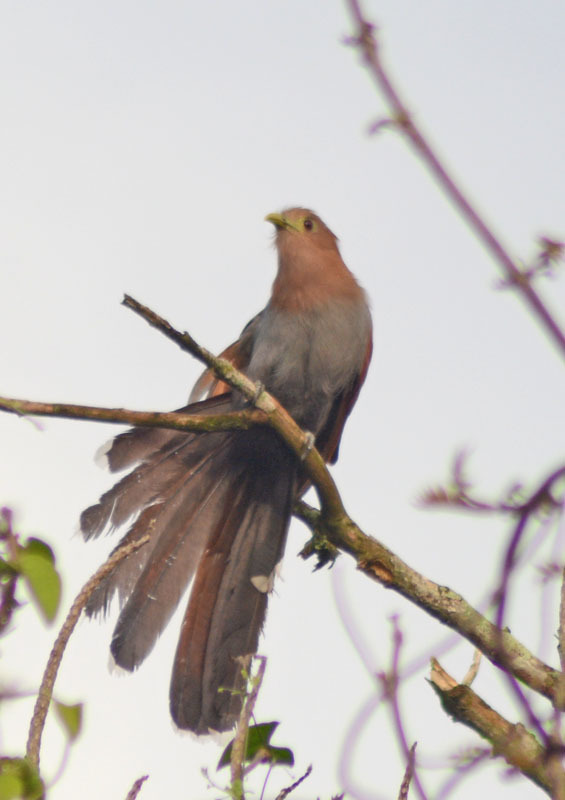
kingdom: Animalia
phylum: Chordata
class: Aves
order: Cuculiformes
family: Cuculidae
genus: Piaya
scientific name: Piaya cayana
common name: Squirrel cuckoo
